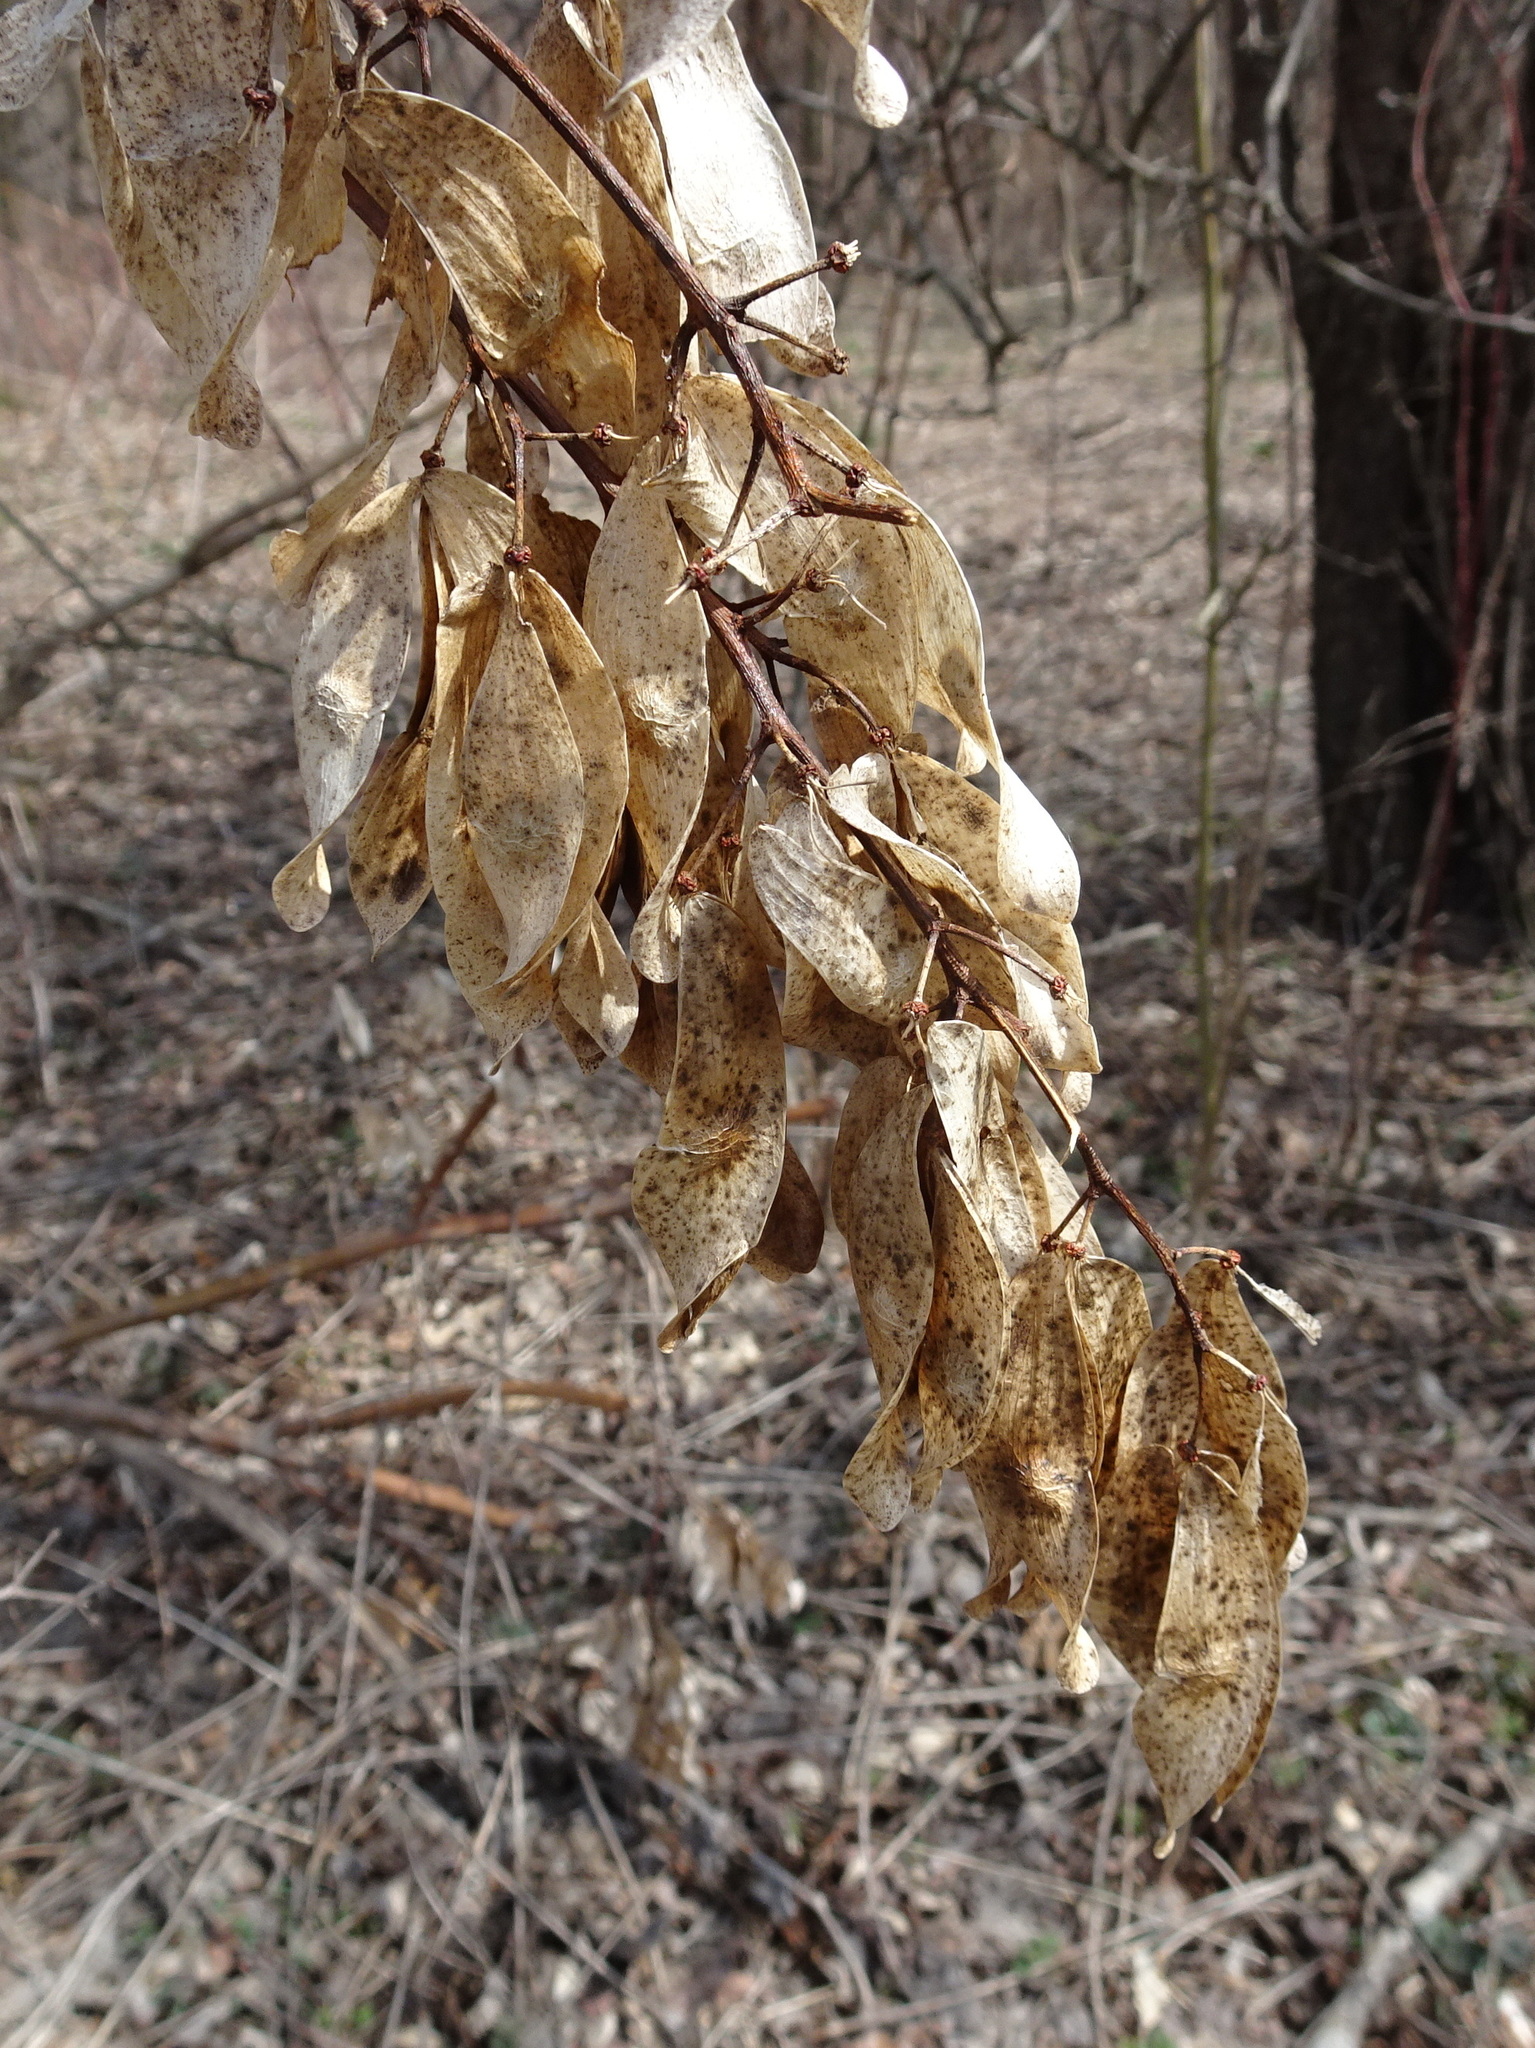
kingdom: Plantae
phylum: Tracheophyta
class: Magnoliopsida
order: Sapindales
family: Simaroubaceae
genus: Ailanthus
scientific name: Ailanthus altissima
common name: Tree-of-heaven
